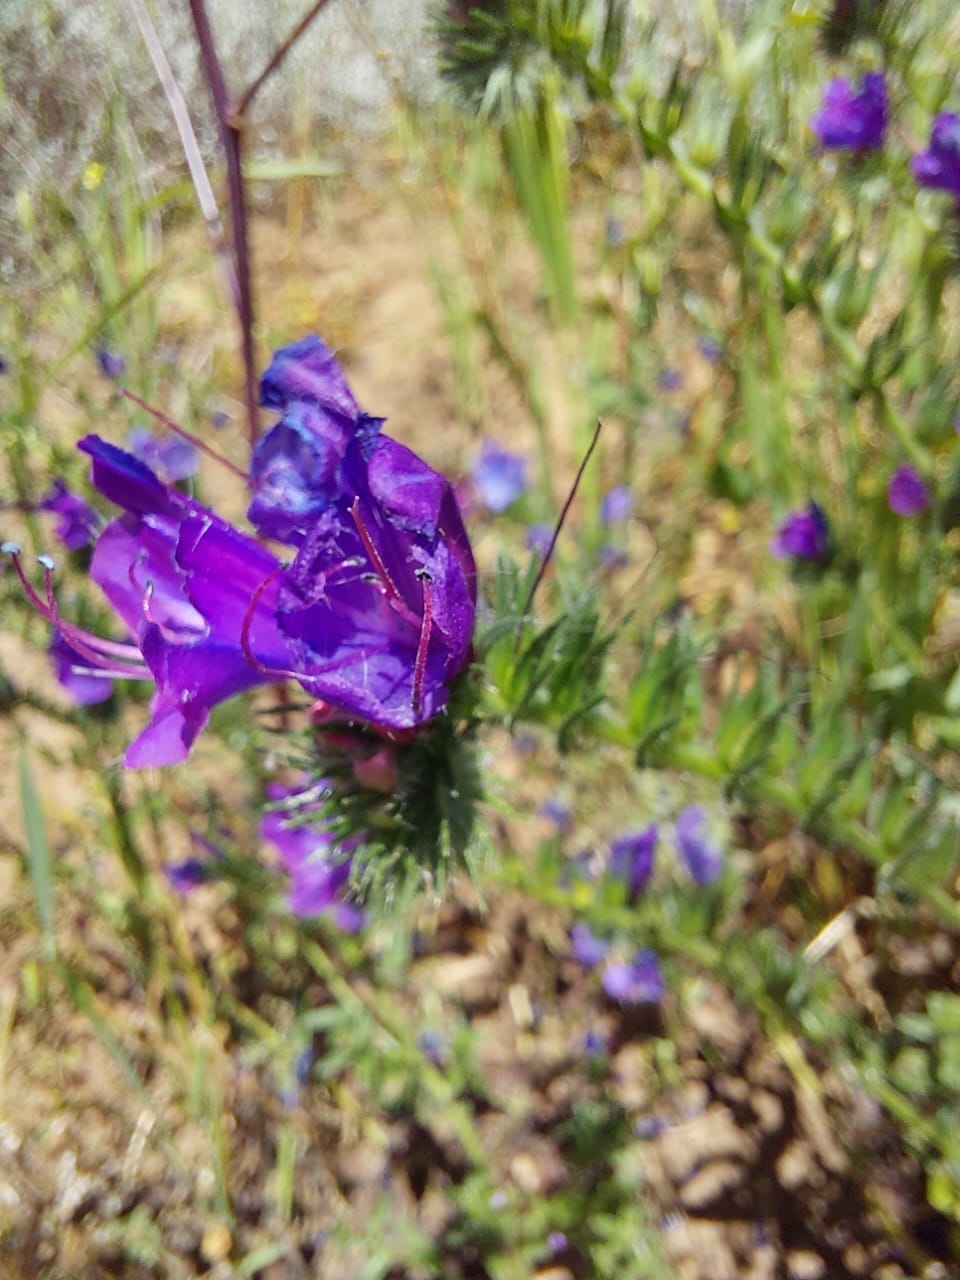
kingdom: Plantae
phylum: Tracheophyta
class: Magnoliopsida
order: Boraginales
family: Boraginaceae
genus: Echium
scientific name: Echium plantagineum
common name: Purple viper's-bugloss
